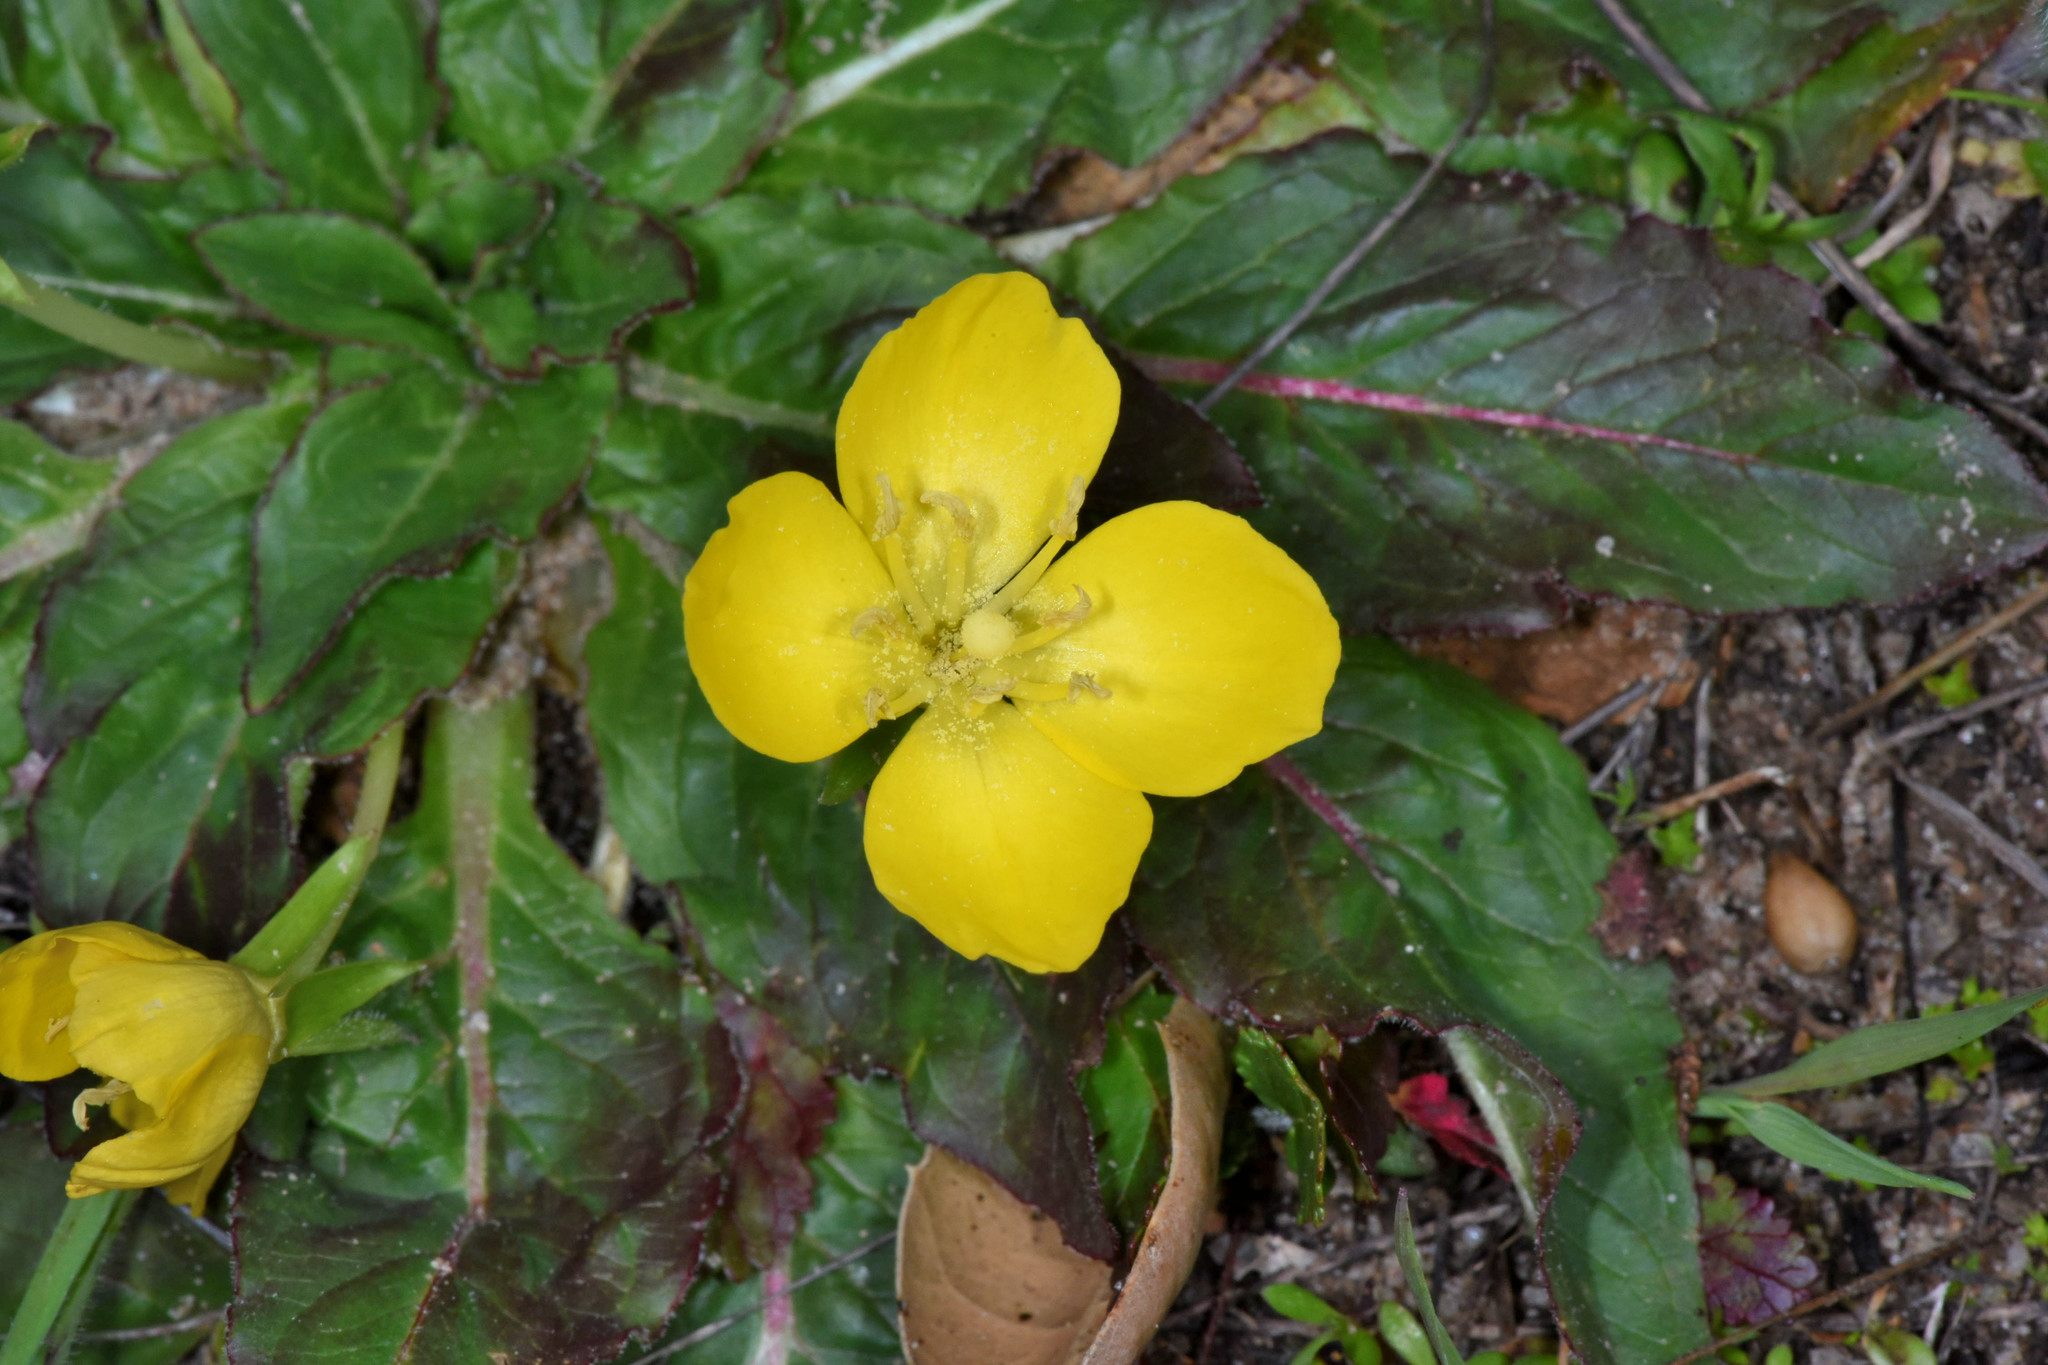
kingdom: Plantae
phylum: Tracheophyta
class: Magnoliopsida
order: Myrtales
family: Onagraceae
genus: Taraxia
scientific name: Taraxia ovata
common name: Goldeneggs
